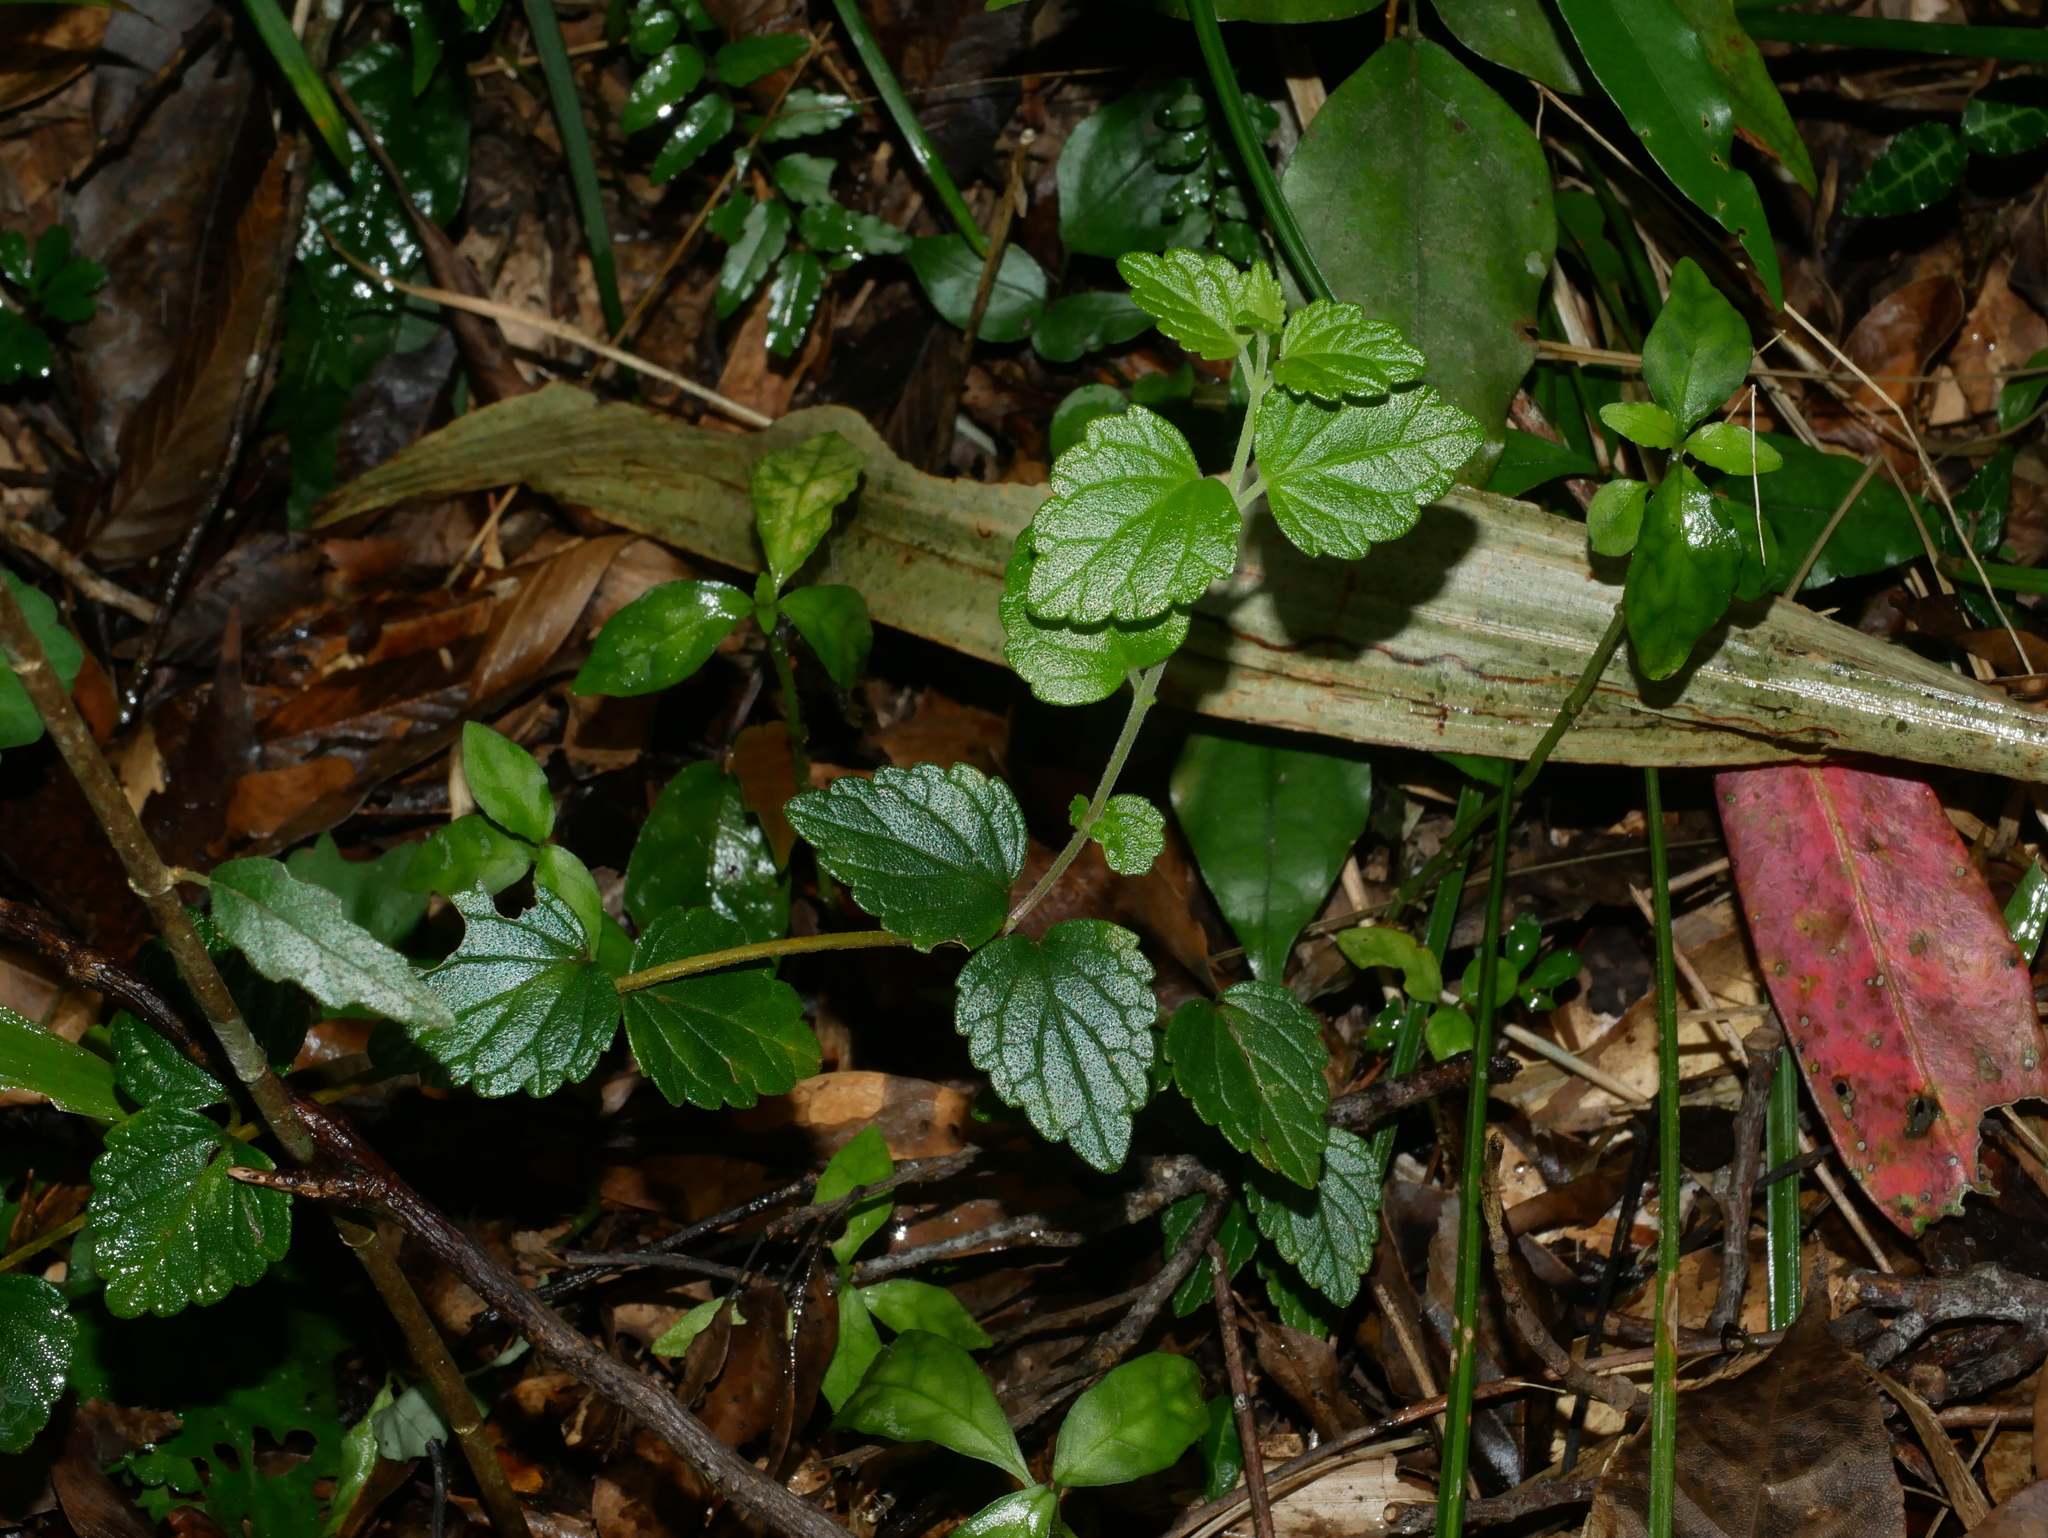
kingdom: Plantae
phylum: Tracheophyta
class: Magnoliopsida
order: Lamiales
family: Lamiaceae
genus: Scutellaria
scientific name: Scutellaria austrotaiwanensis
